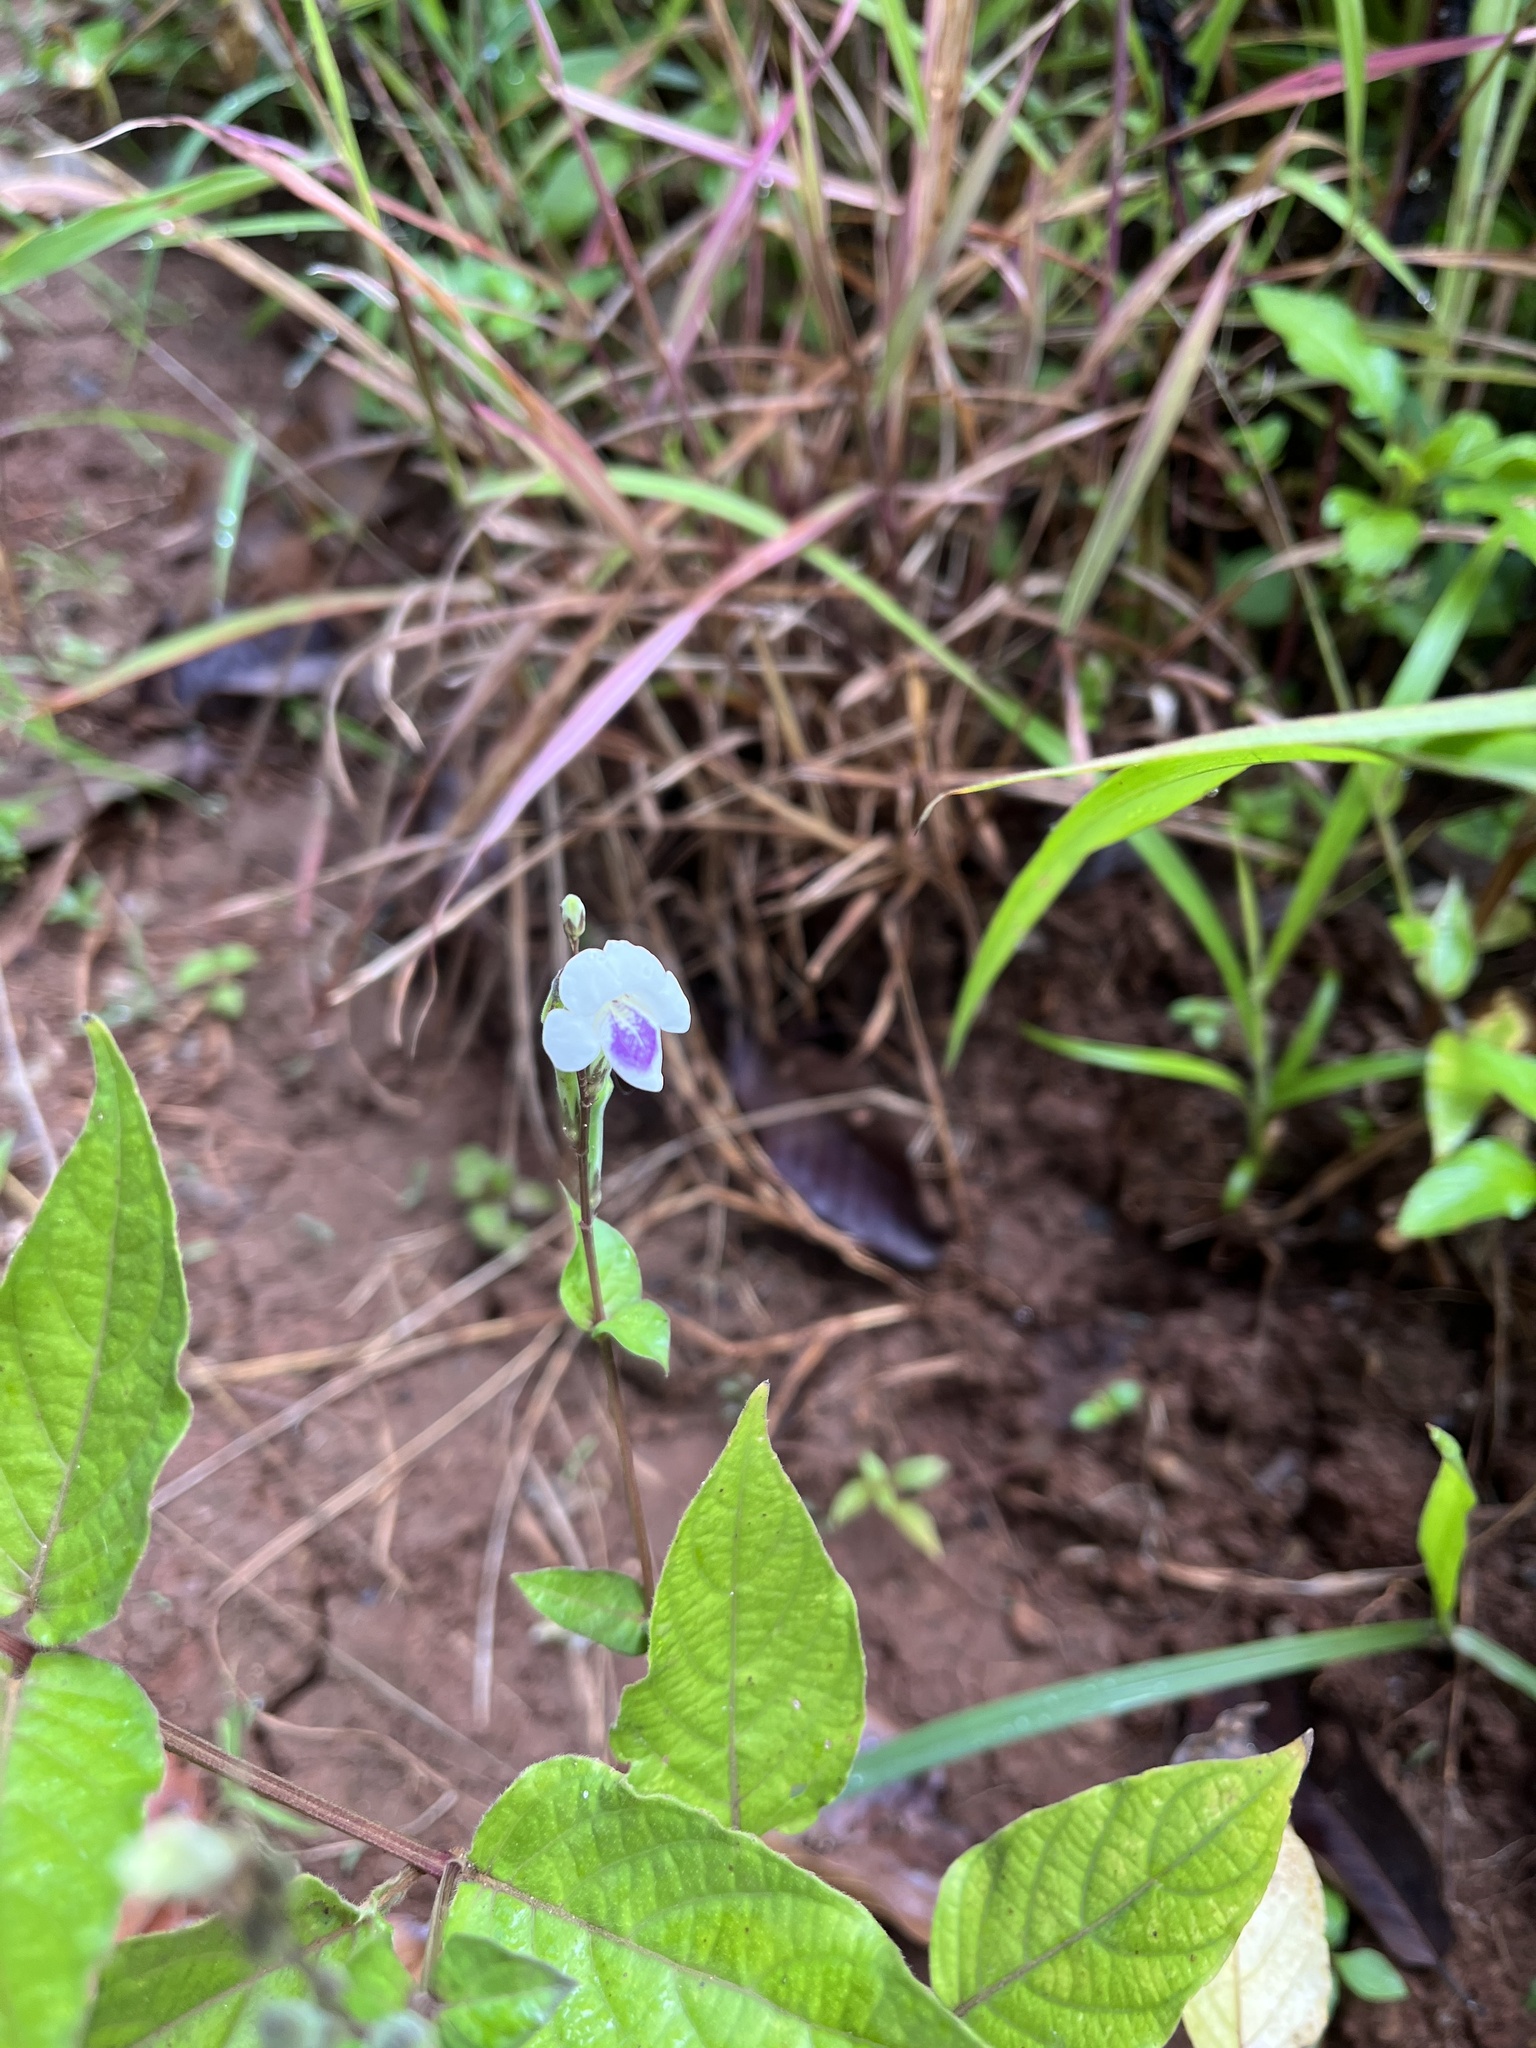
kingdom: Plantae
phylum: Tracheophyta
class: Magnoliopsida
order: Lamiales
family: Acanthaceae
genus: Asystasia
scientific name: Asystasia intrusa
